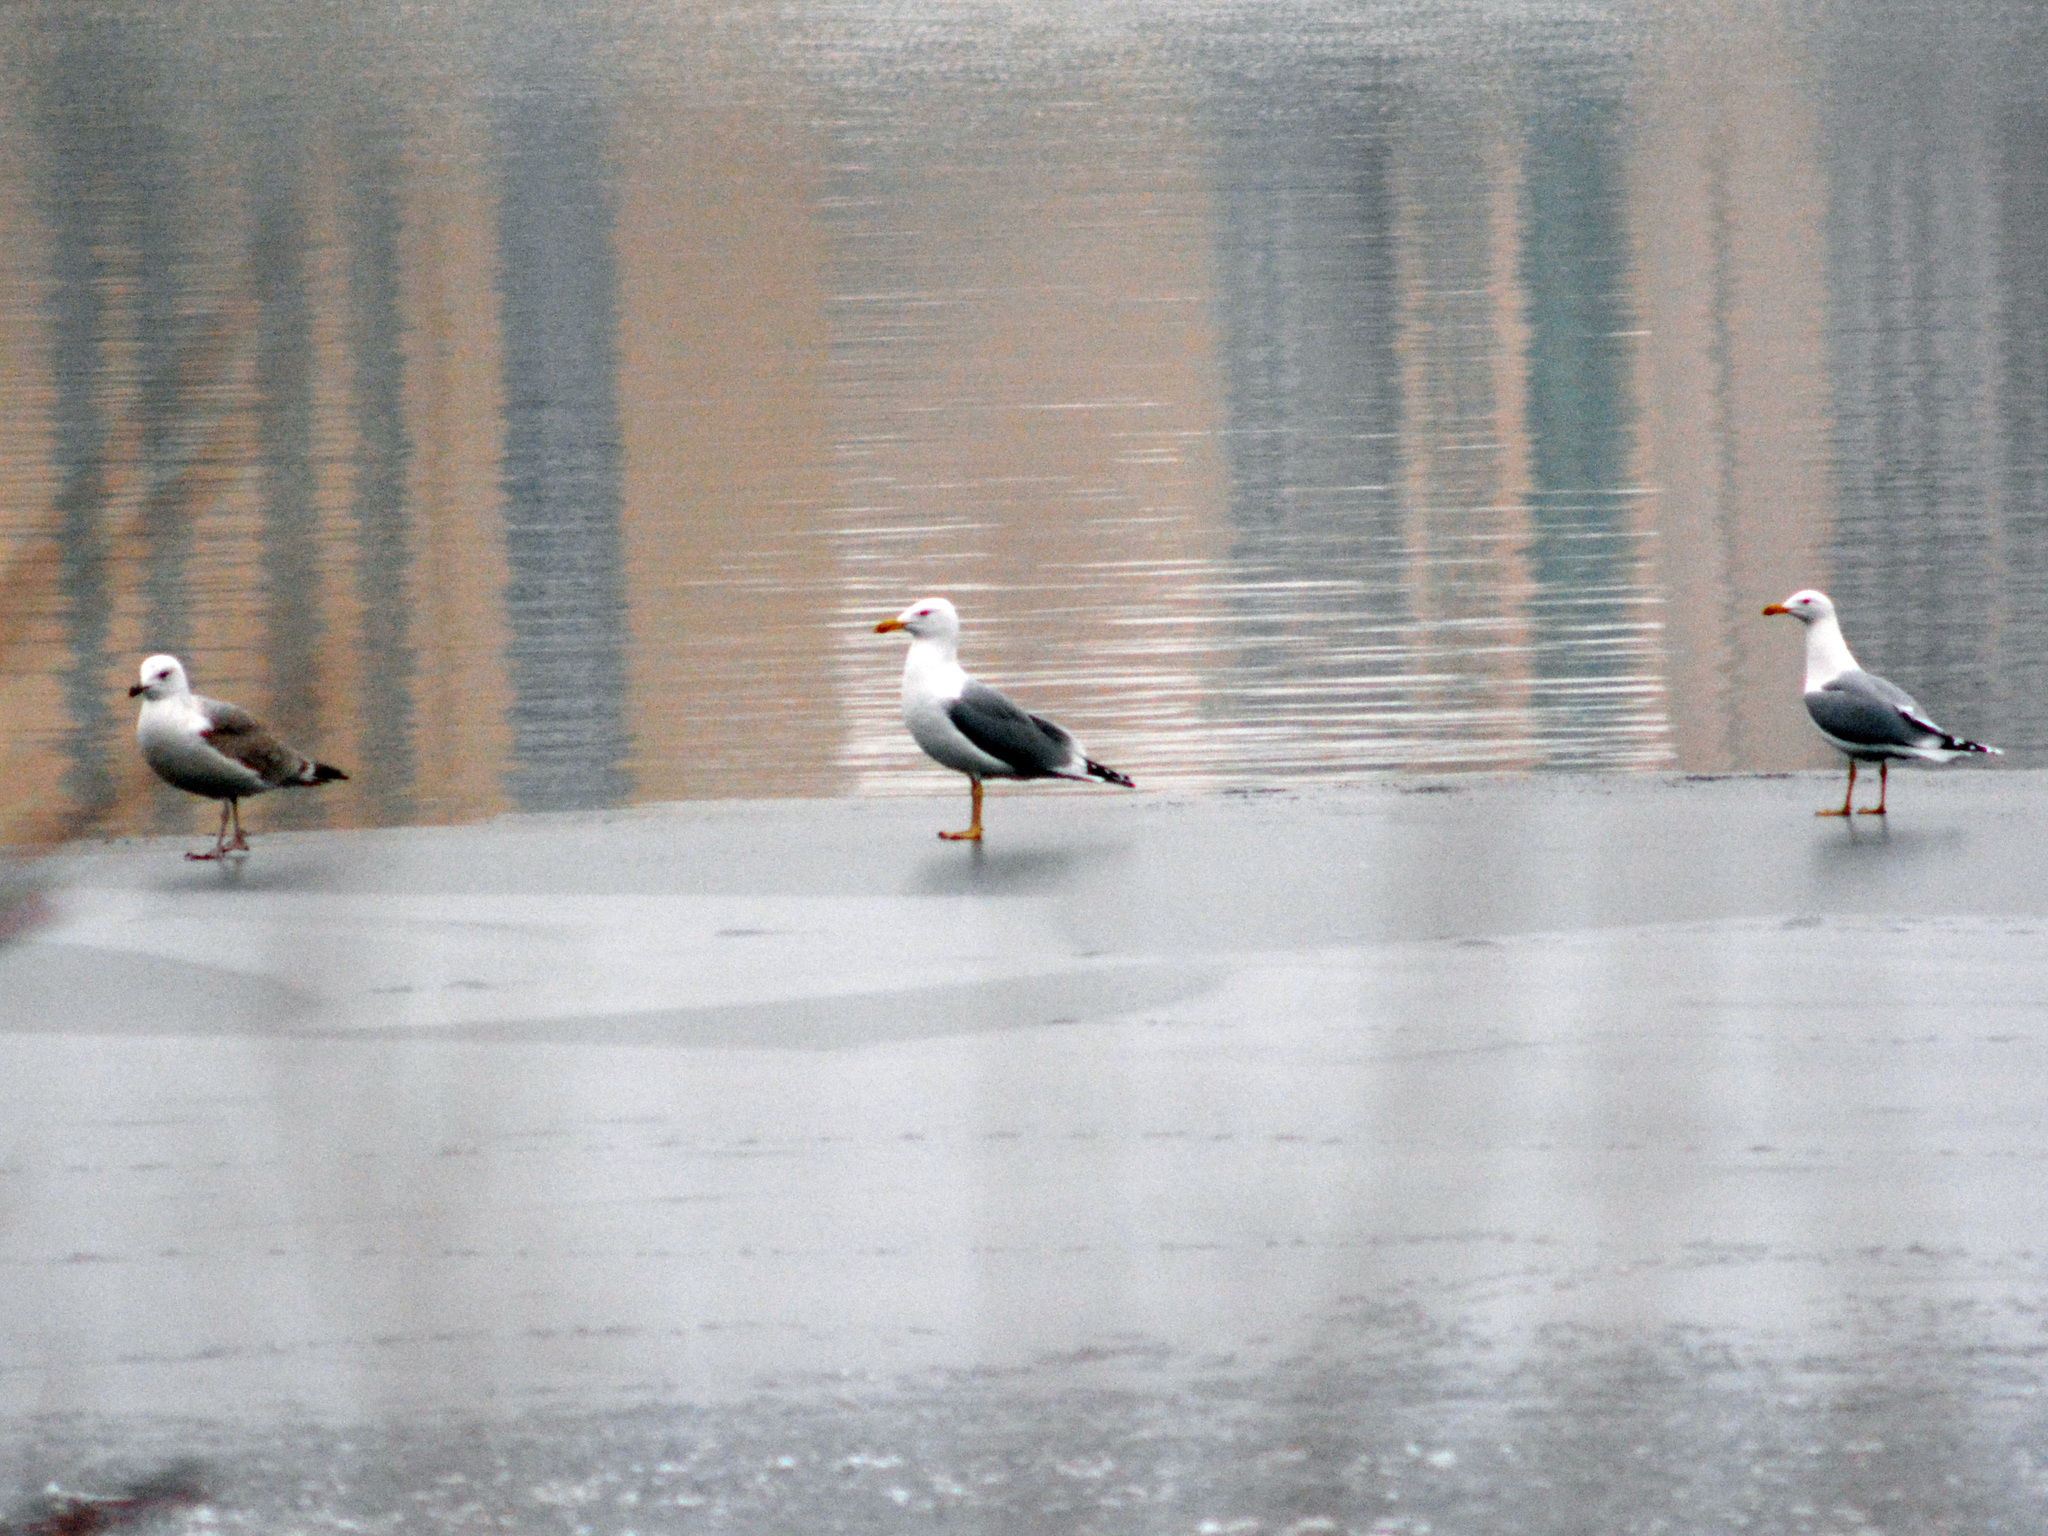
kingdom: Animalia
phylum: Chordata
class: Aves
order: Charadriiformes
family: Laridae
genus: Larus
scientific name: Larus fuscus
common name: Lesser black-backed gull
